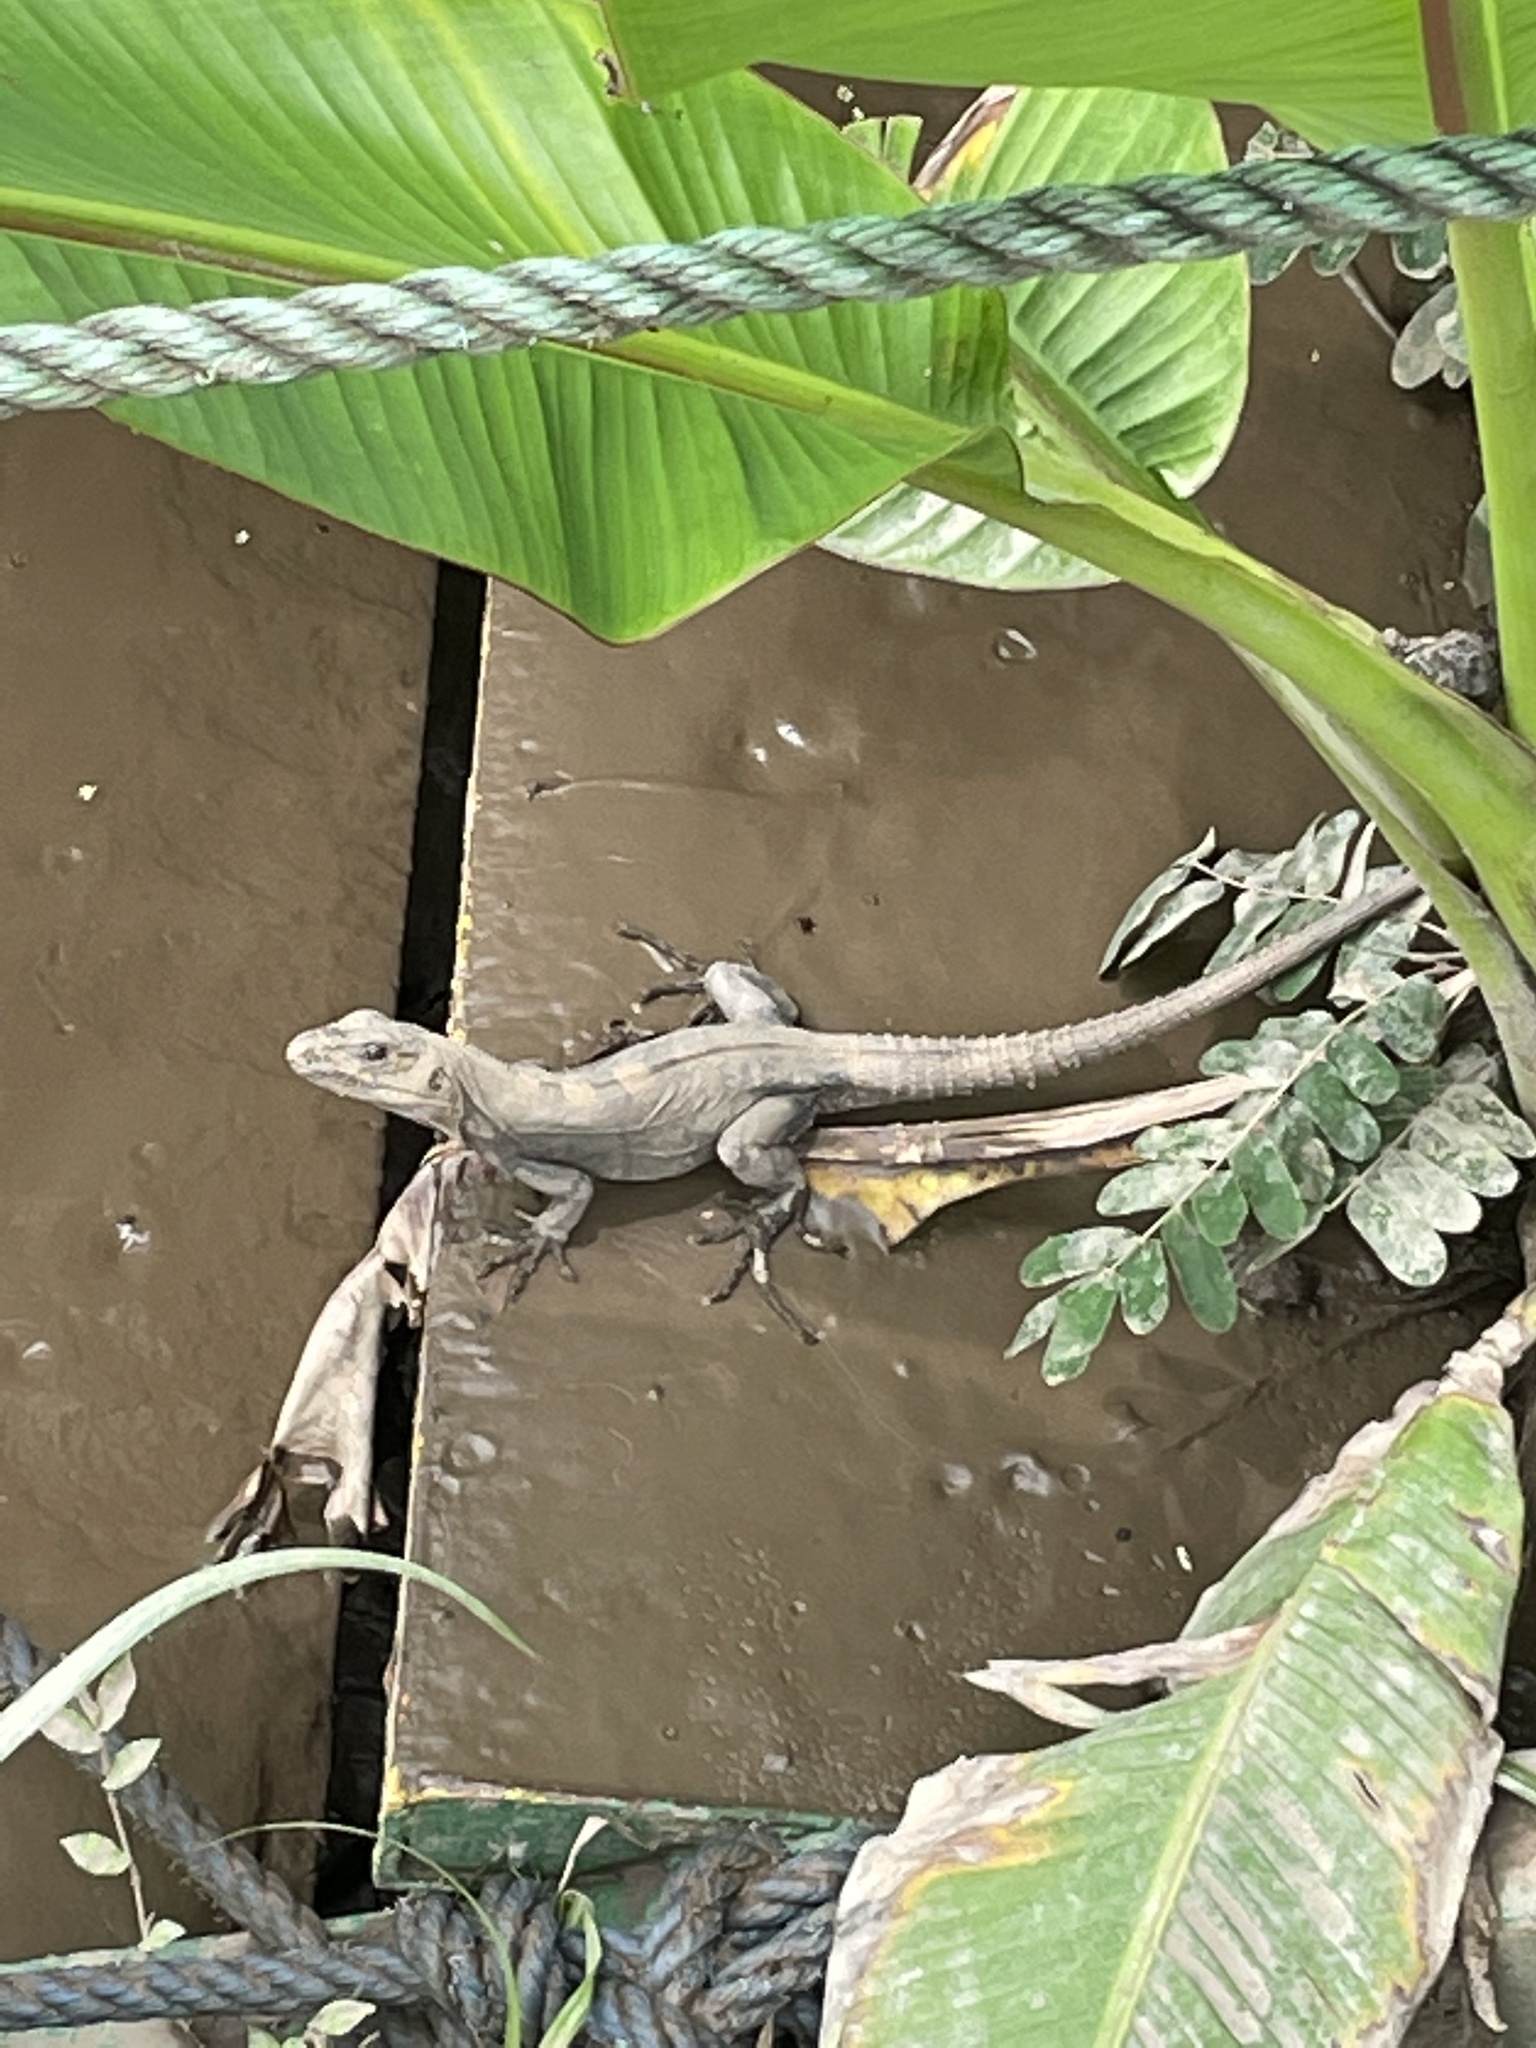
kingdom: Animalia
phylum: Chordata
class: Squamata
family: Iguanidae
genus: Ctenosaura
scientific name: Ctenosaura similis
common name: Black spiny-tailed iguana
